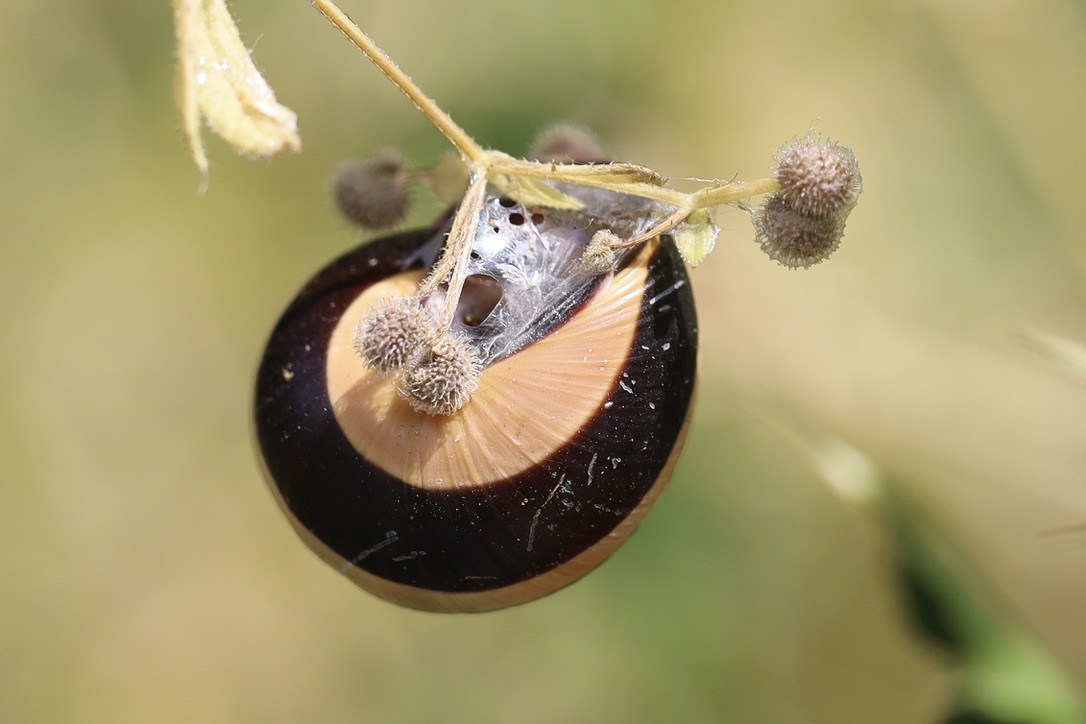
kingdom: Animalia
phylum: Mollusca
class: Gastropoda
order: Stylommatophora
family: Helicidae
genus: Cepaea
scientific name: Cepaea nemoralis
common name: Grovesnail
